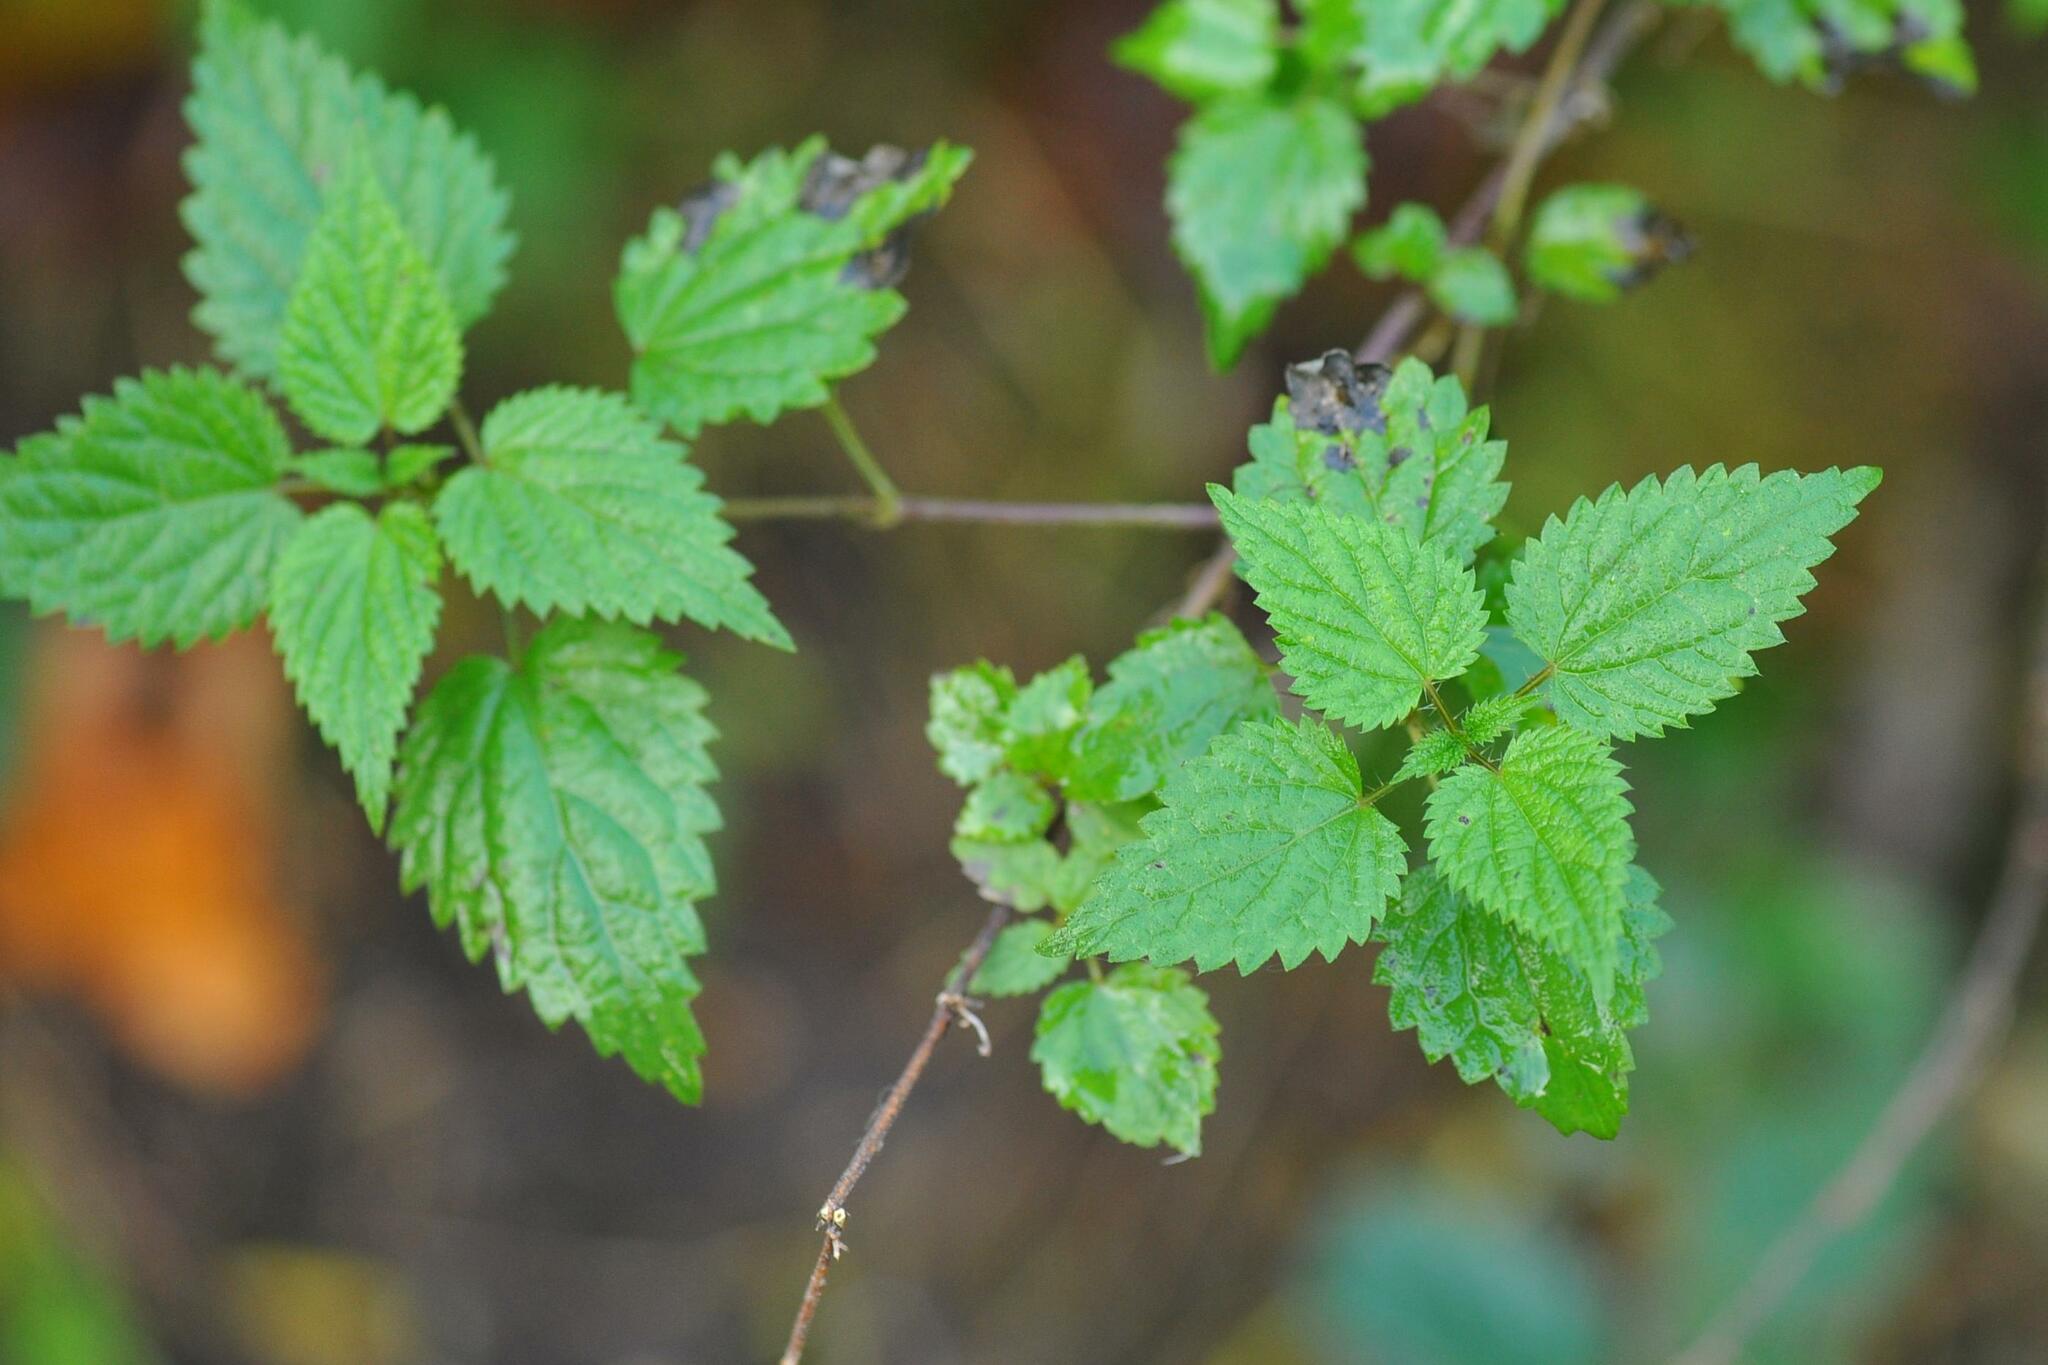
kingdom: Plantae
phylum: Tracheophyta
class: Magnoliopsida
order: Rosales
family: Urticaceae
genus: Urtica
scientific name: Urtica dioica
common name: Common nettle
